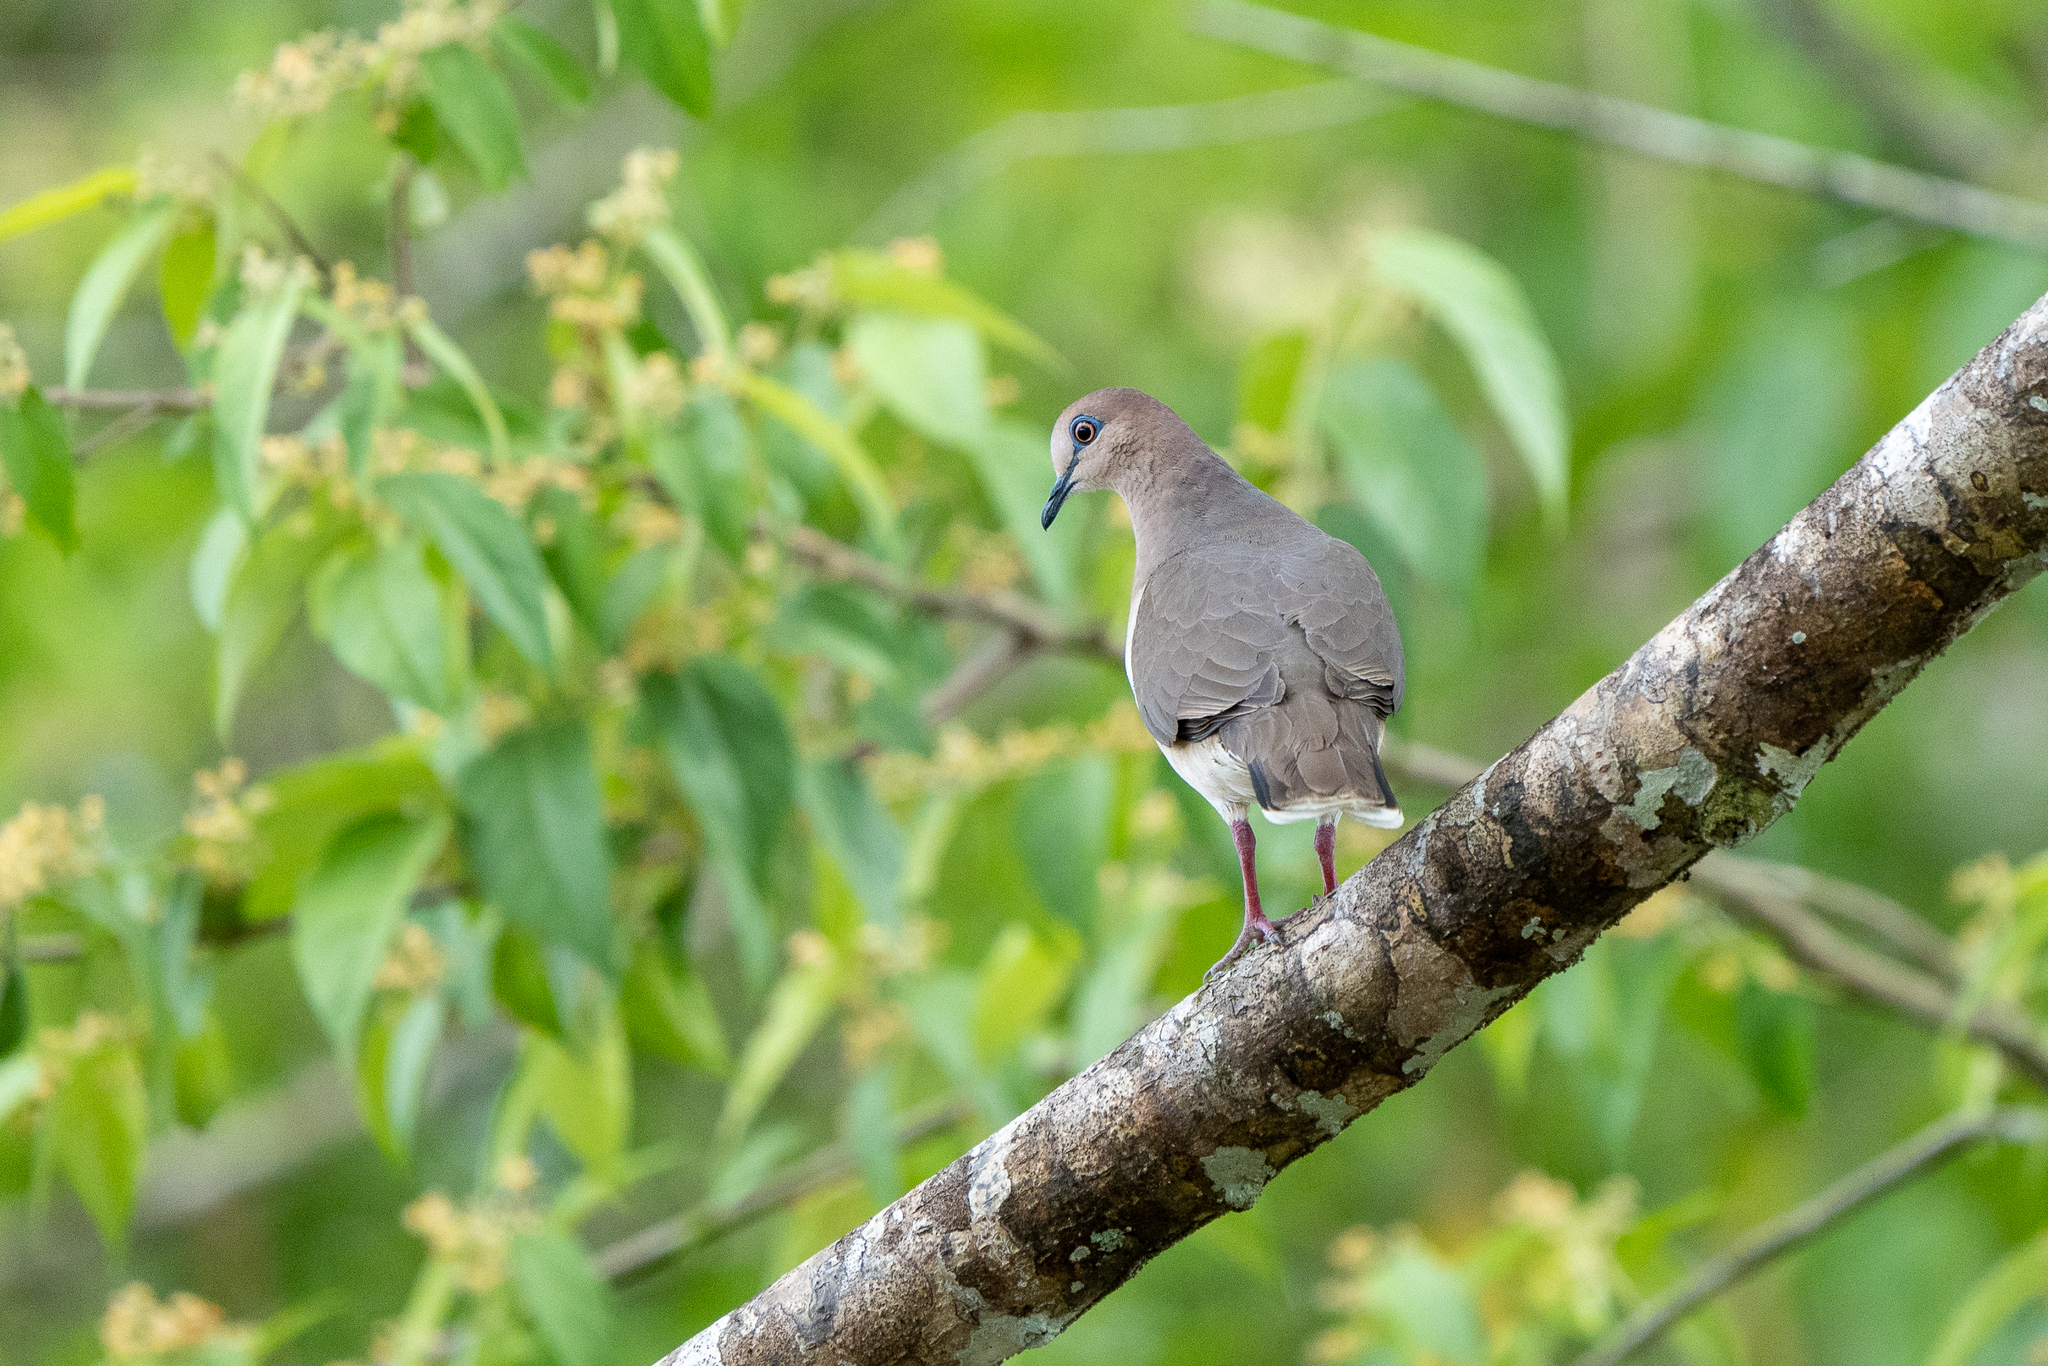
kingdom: Animalia
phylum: Chordata
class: Aves
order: Columbiformes
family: Columbidae
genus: Leptotila
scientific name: Leptotila verreauxi
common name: White-tipped dove
